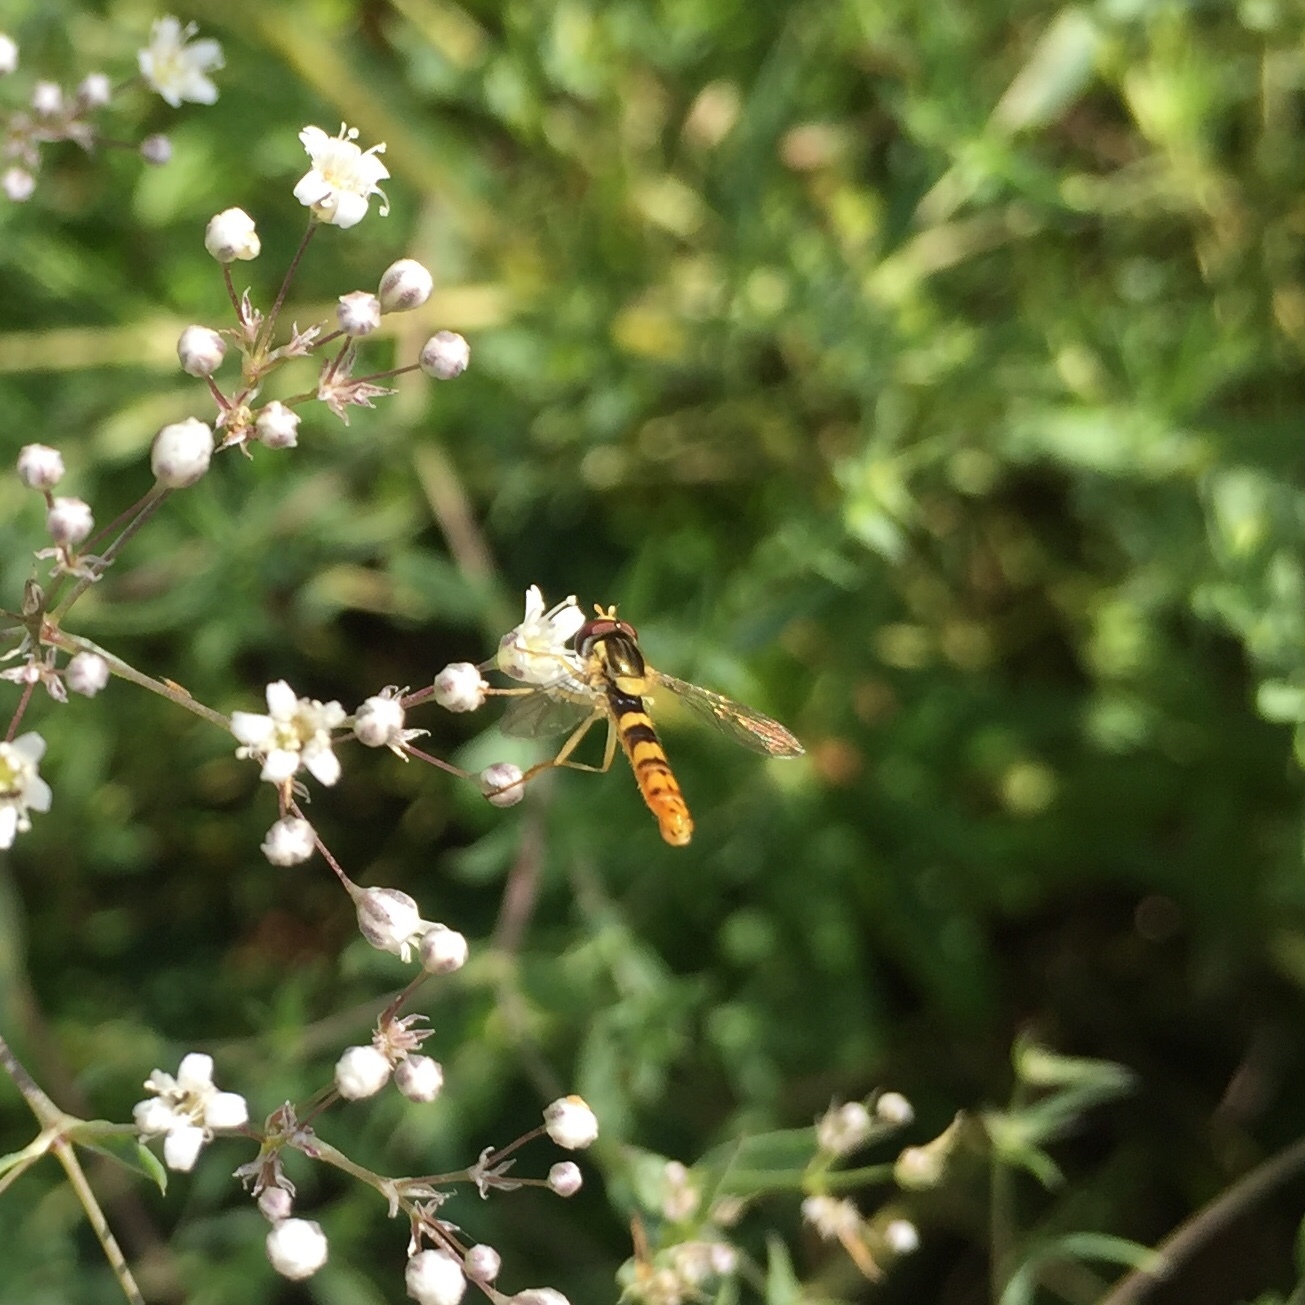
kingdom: Animalia
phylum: Arthropoda
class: Insecta
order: Diptera
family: Syrphidae
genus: Sphaerophoria
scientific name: Sphaerophoria scripta
